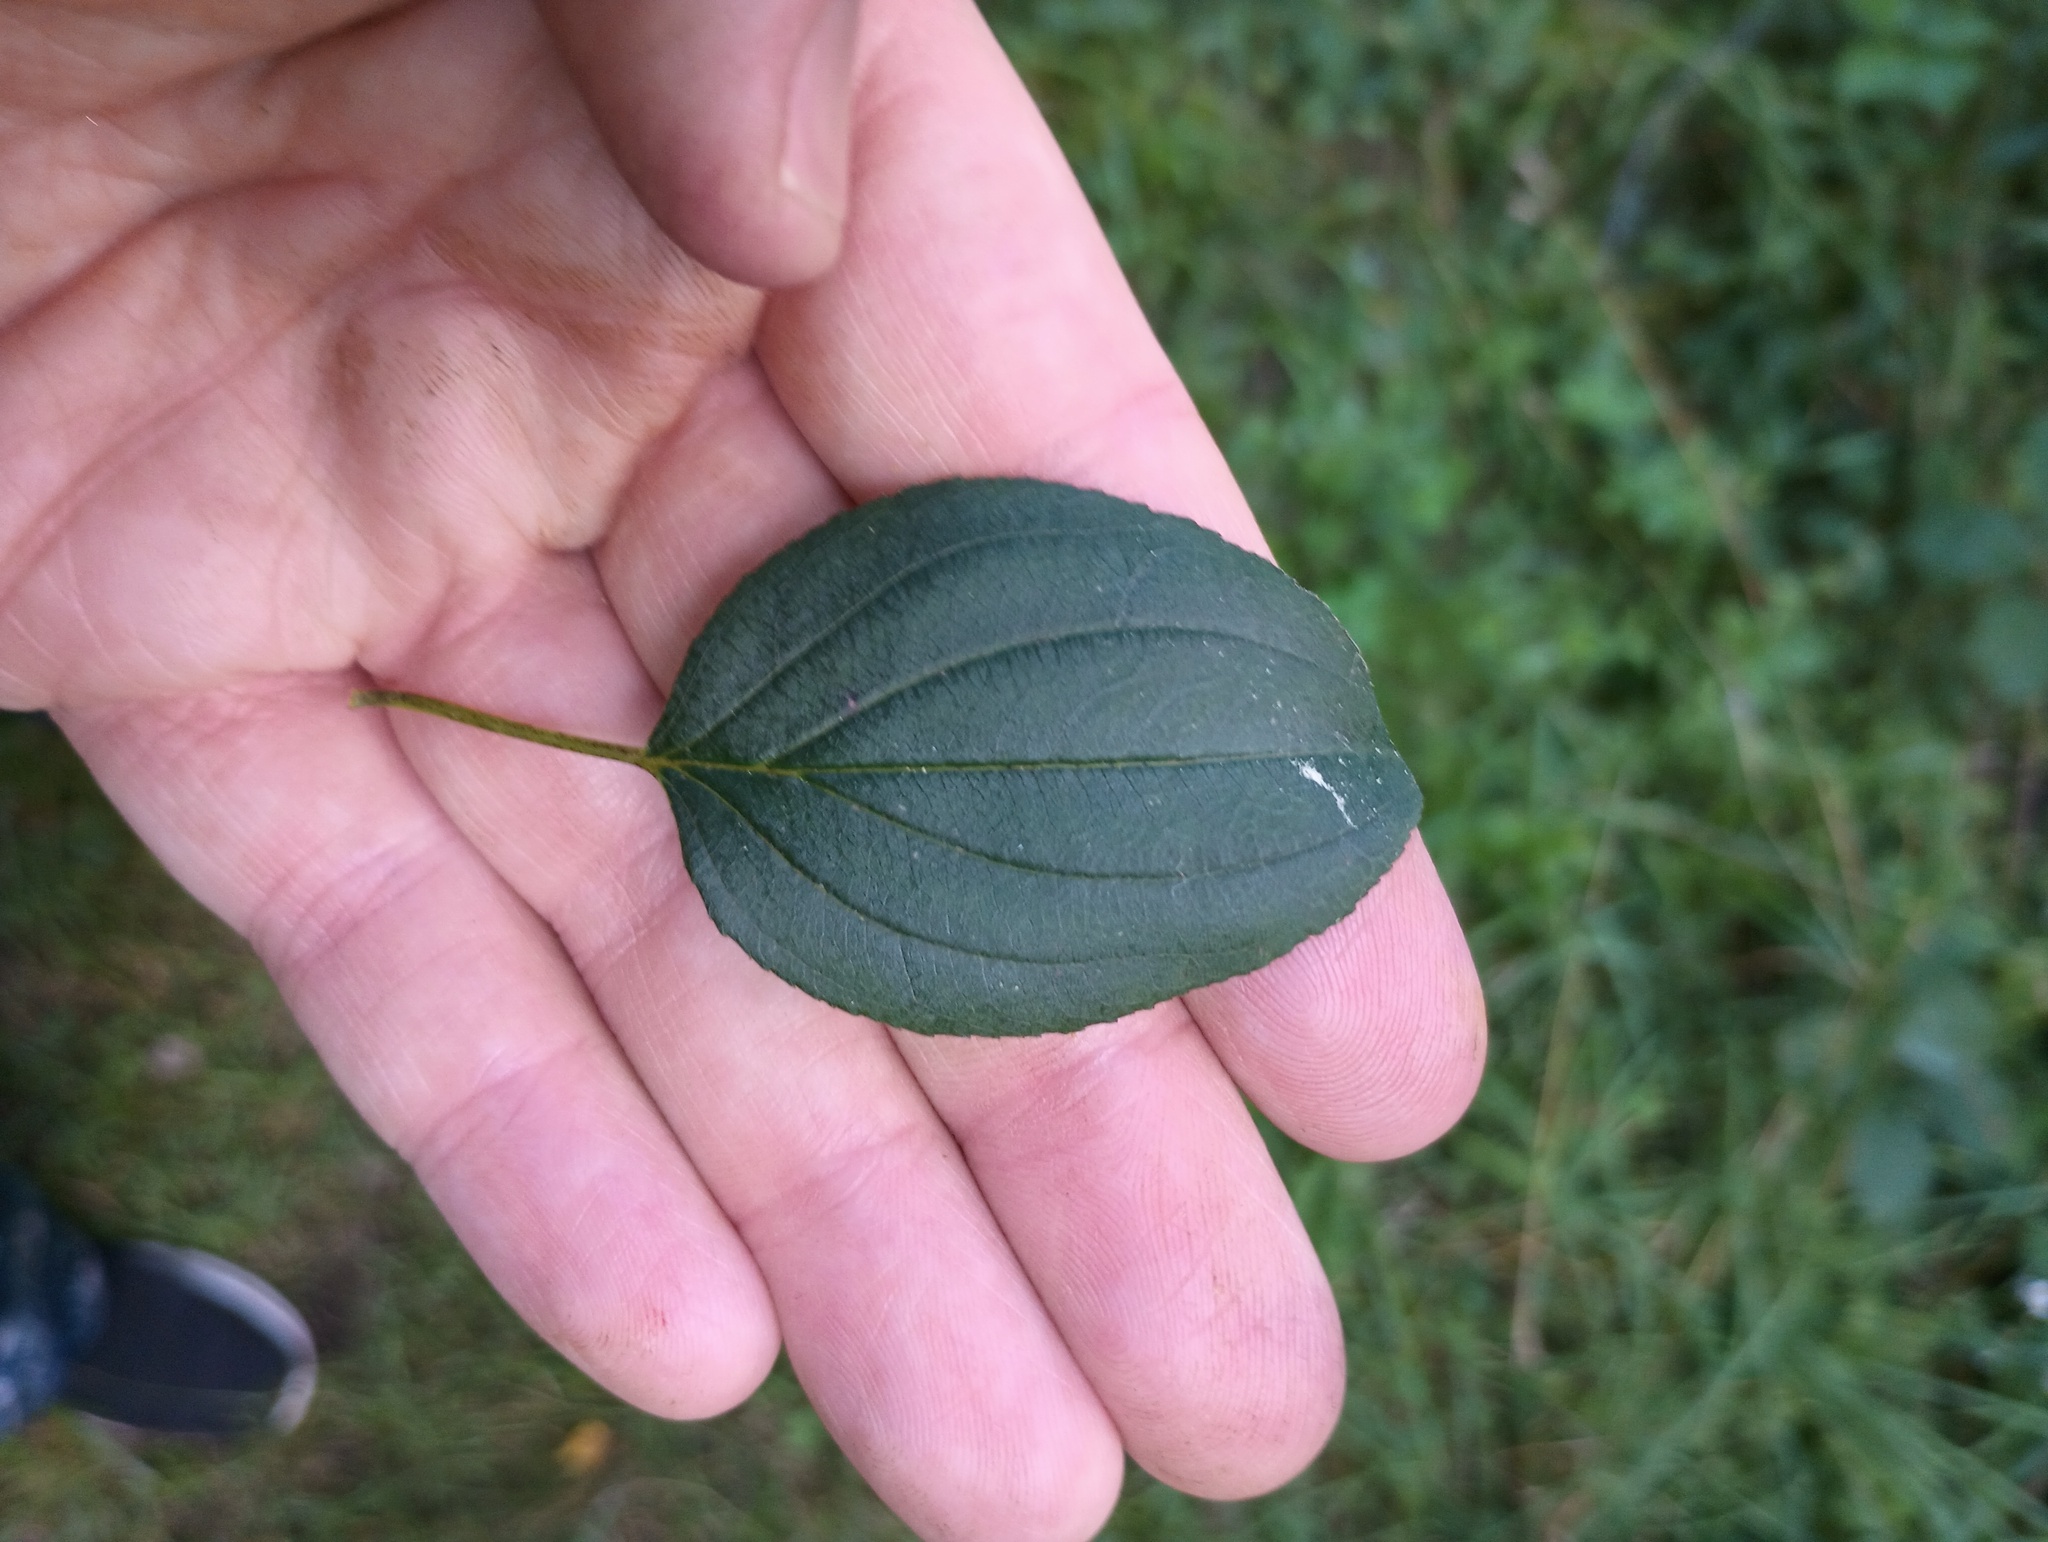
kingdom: Plantae
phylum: Tracheophyta
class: Magnoliopsida
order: Rosales
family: Rhamnaceae
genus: Rhamnus
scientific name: Rhamnus cathartica
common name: Common buckthorn
